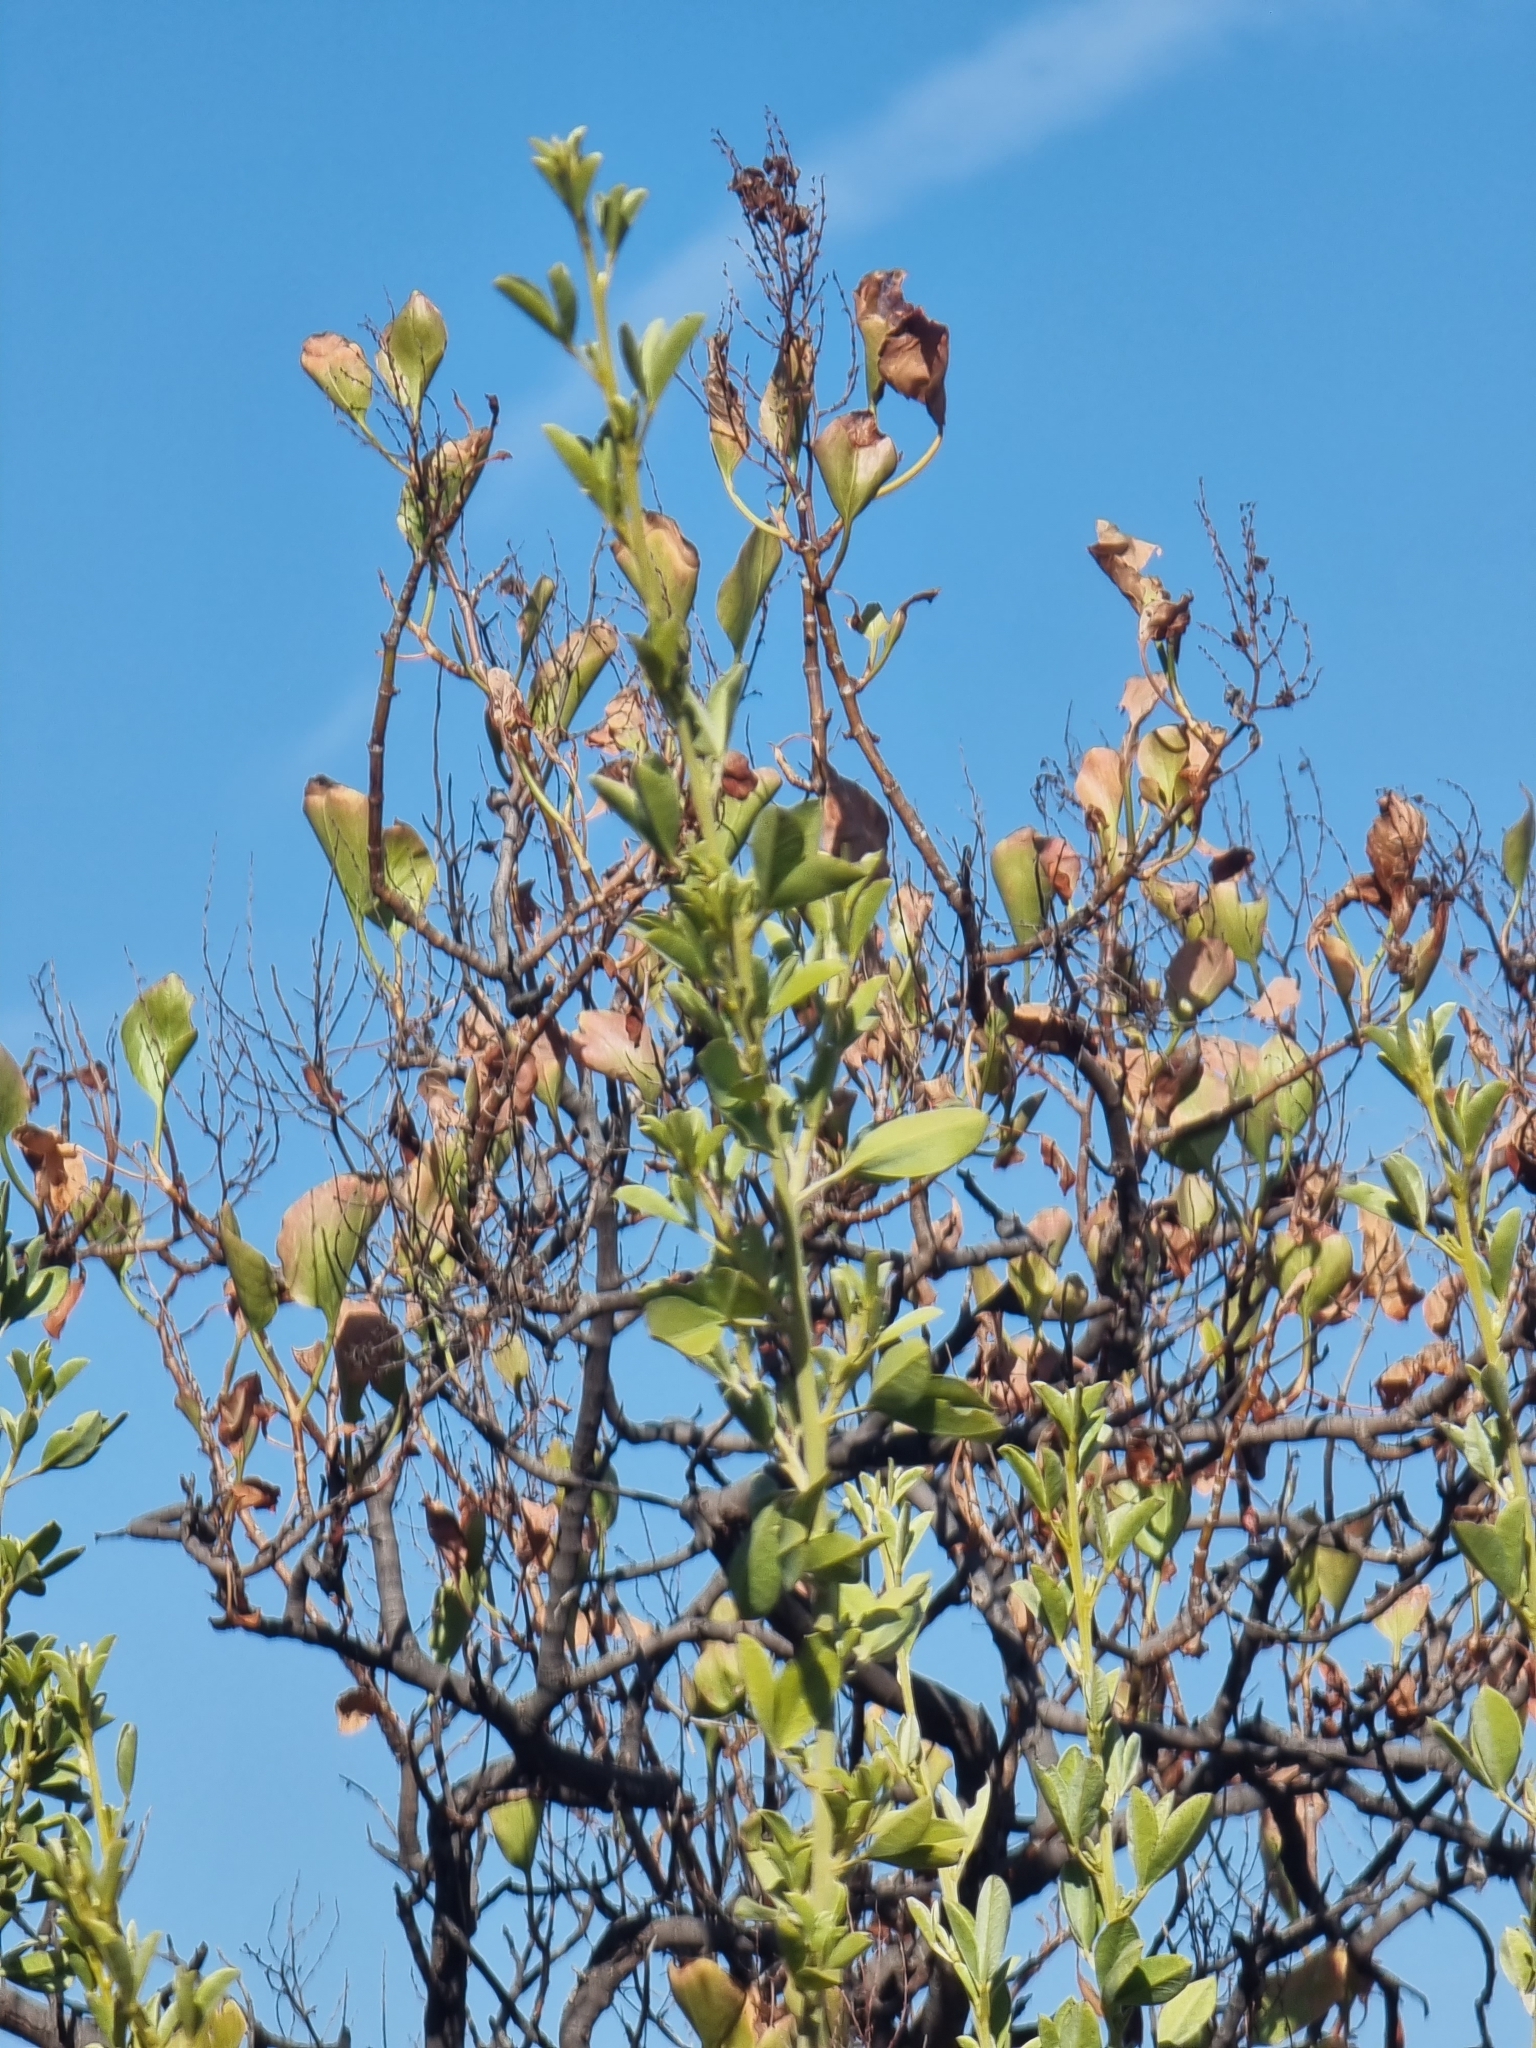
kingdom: Plantae
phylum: Tracheophyta
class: Magnoliopsida
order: Caryophyllales
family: Polygonaceae
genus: Rumex
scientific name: Rumex lunaria
